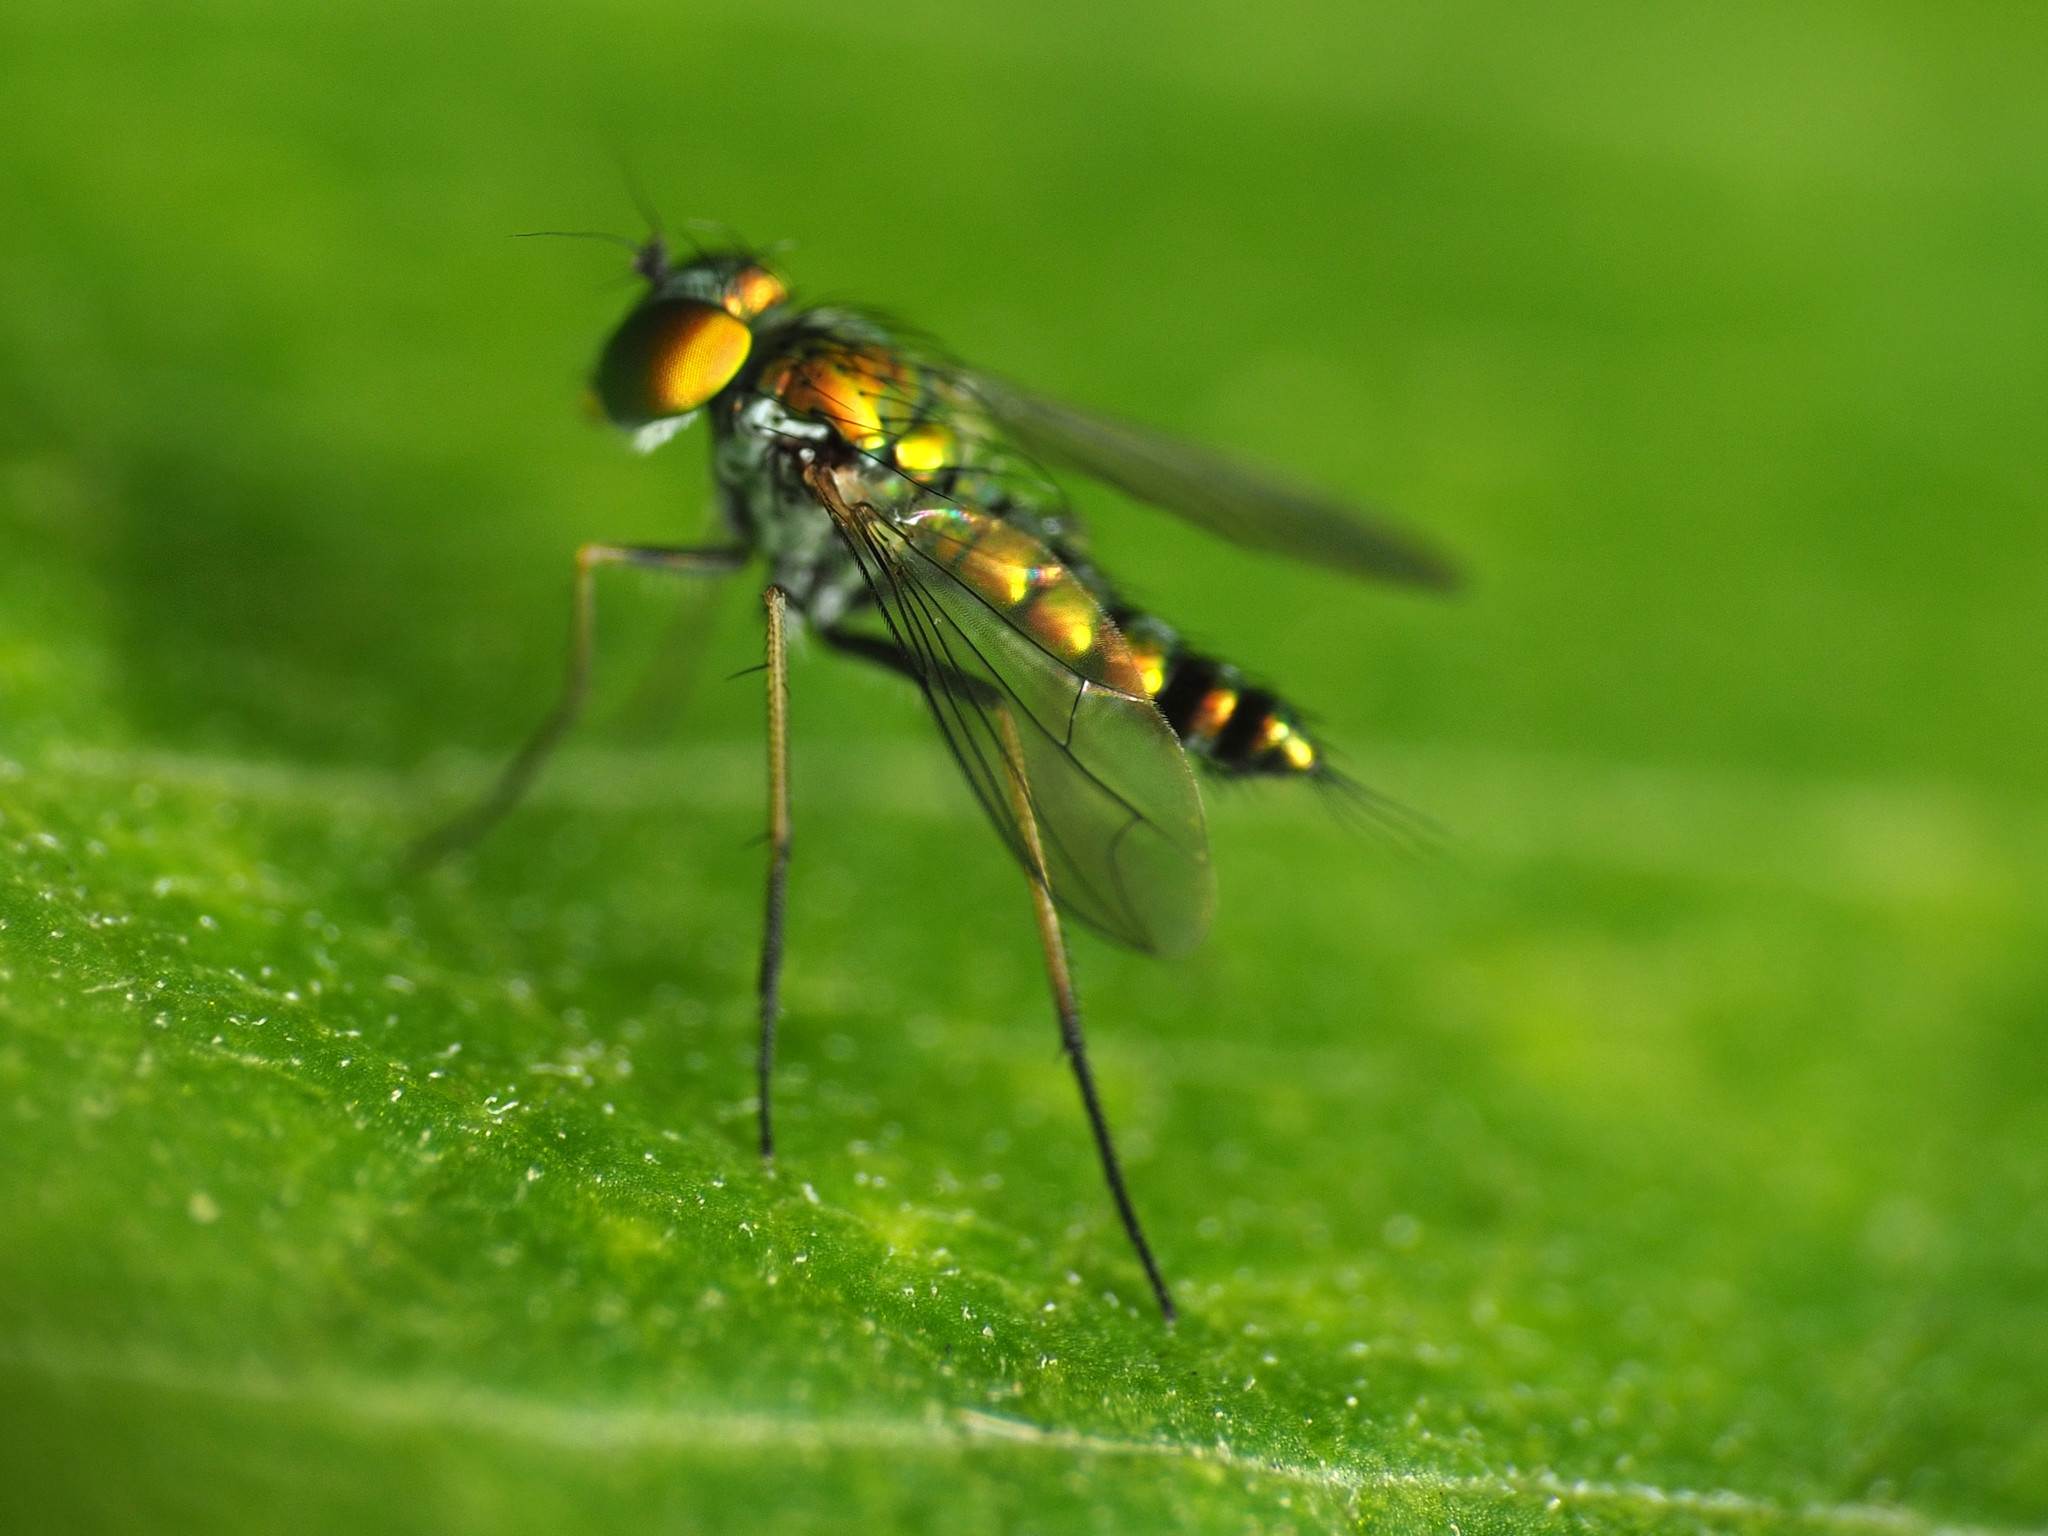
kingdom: Animalia
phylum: Arthropoda
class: Insecta
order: Diptera
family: Dolichopodidae
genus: Condylostylus
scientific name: Condylostylus caudatus
